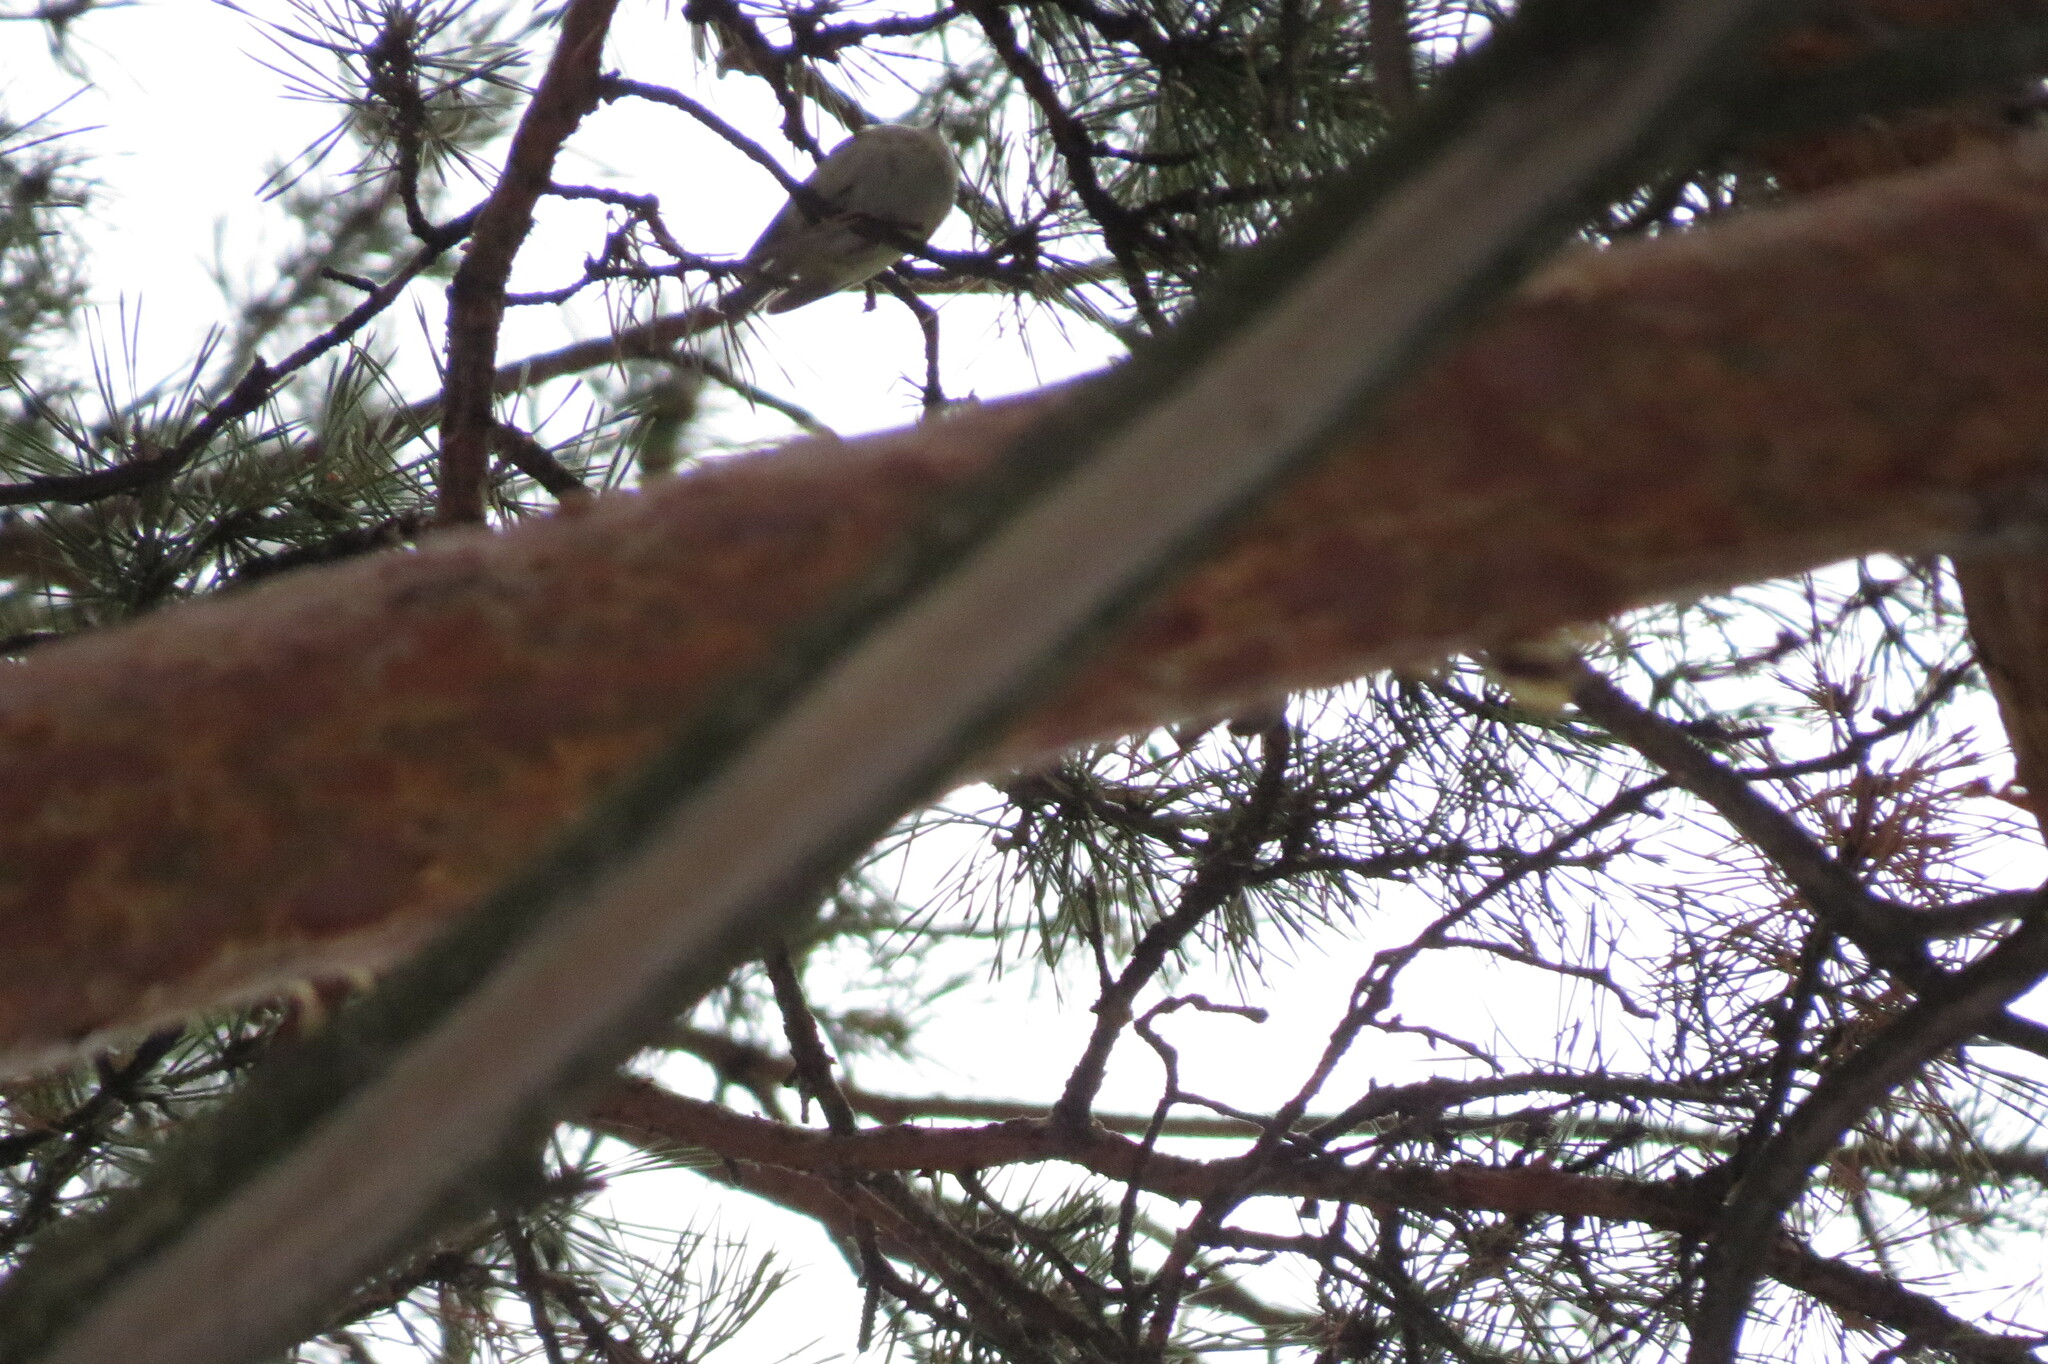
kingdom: Animalia
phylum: Chordata
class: Aves
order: Passeriformes
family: Regulidae
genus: Regulus
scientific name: Regulus regulus
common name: Goldcrest
